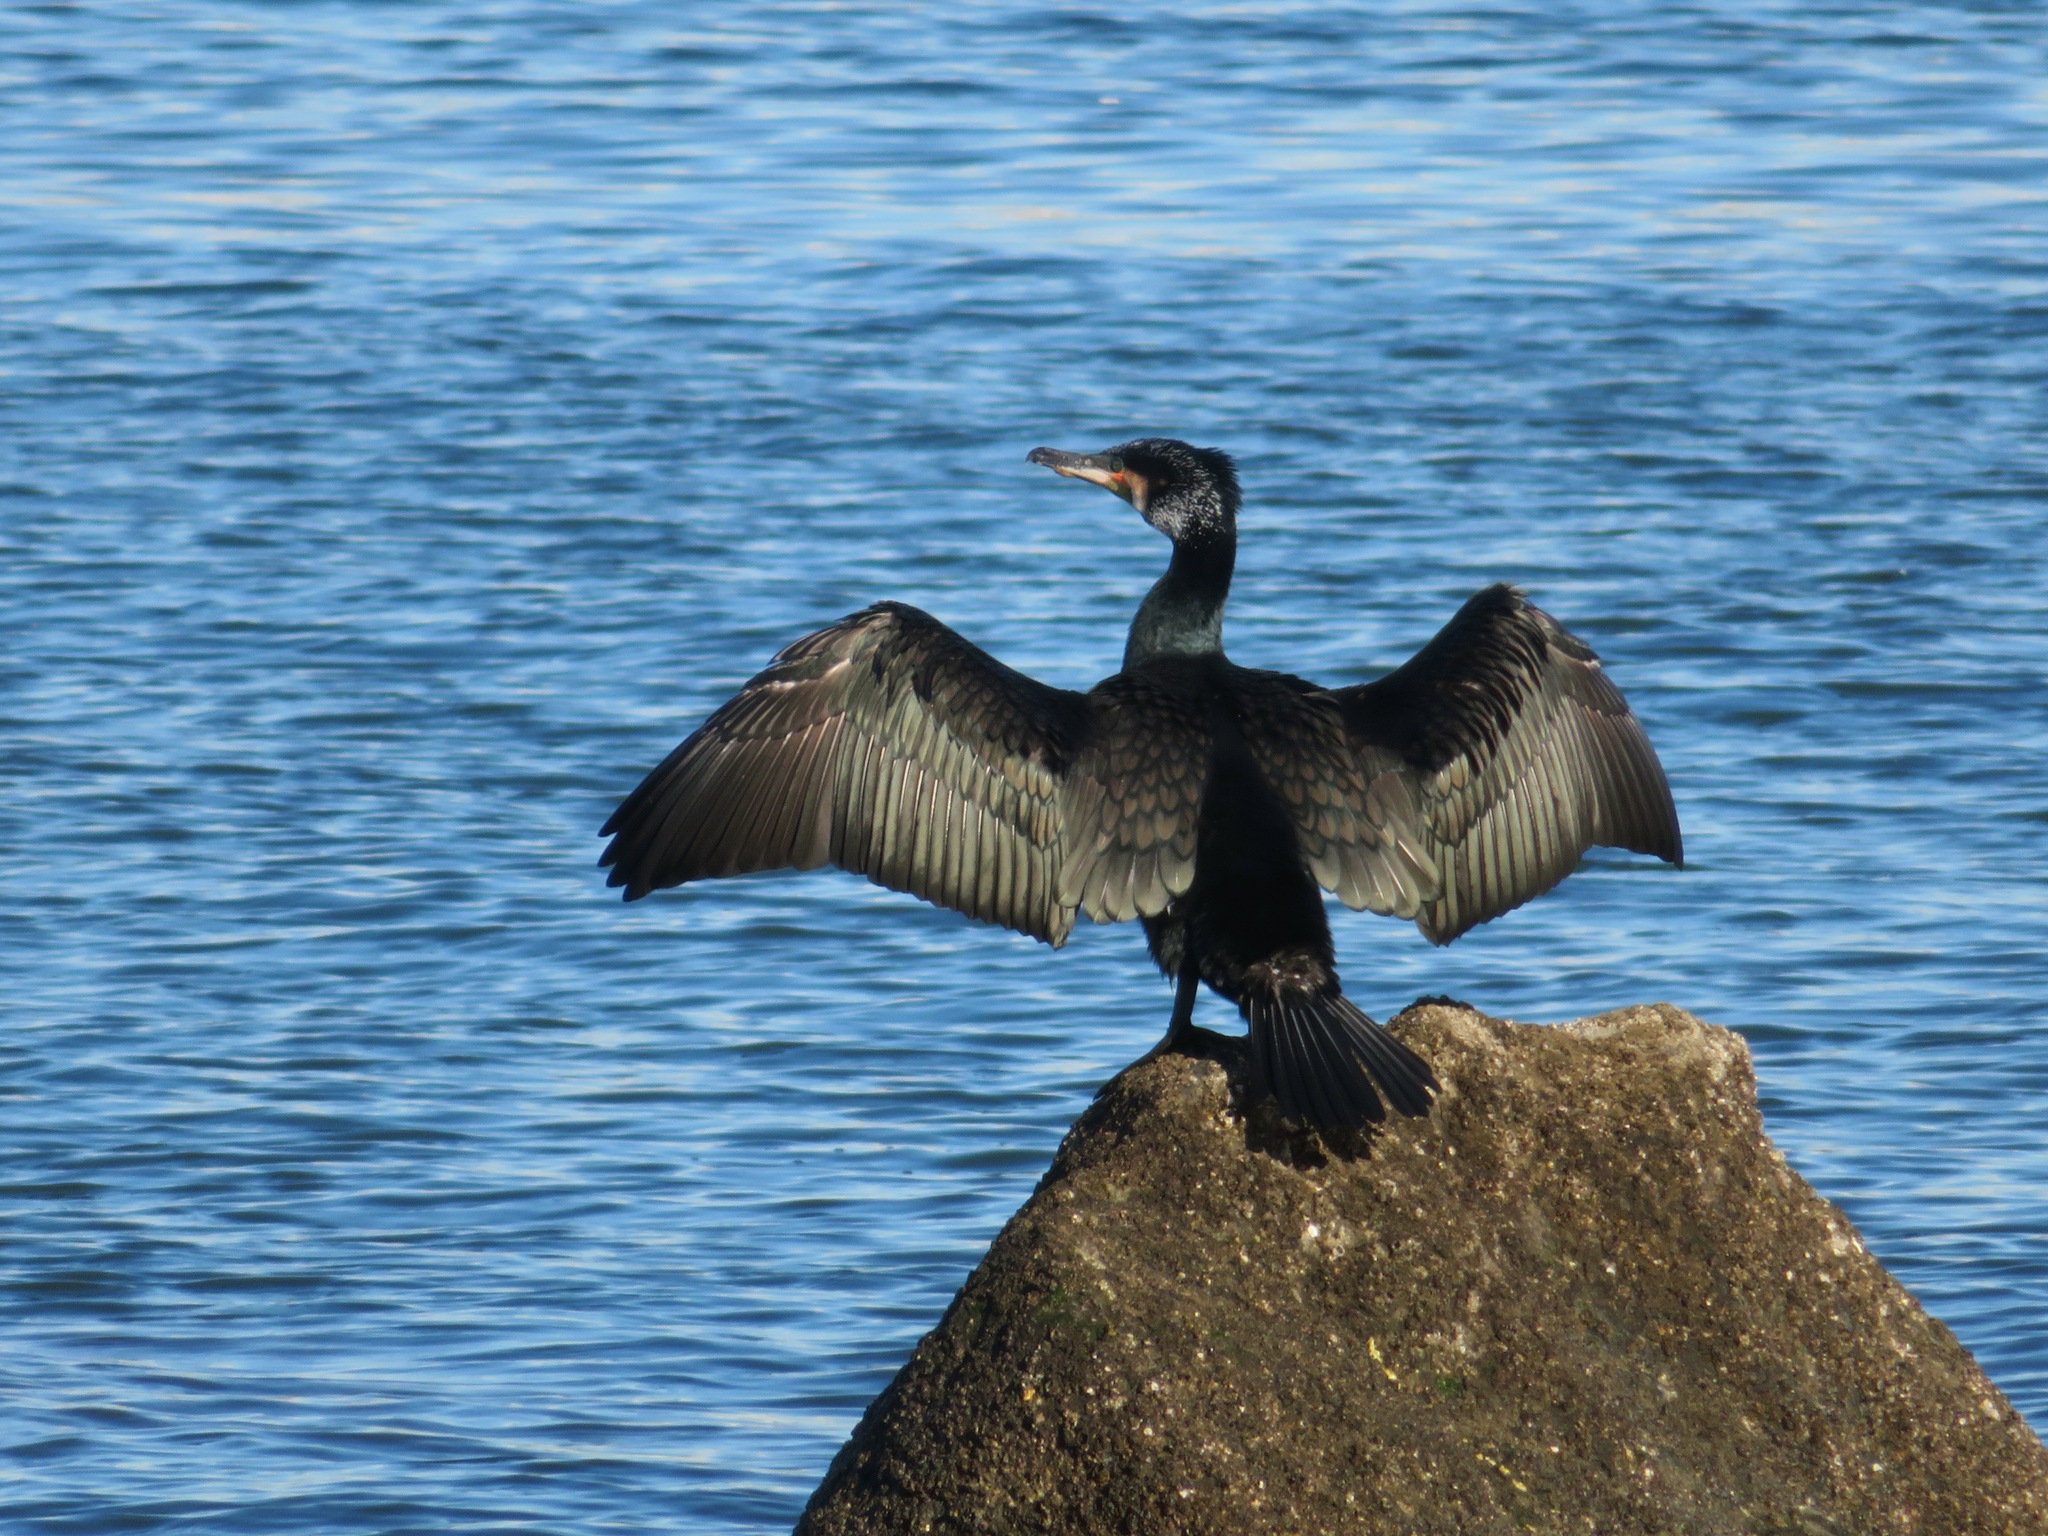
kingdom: Animalia
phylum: Chordata
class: Aves
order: Suliformes
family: Phalacrocoracidae
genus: Phalacrocorax
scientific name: Phalacrocorax carbo
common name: Great cormorant
